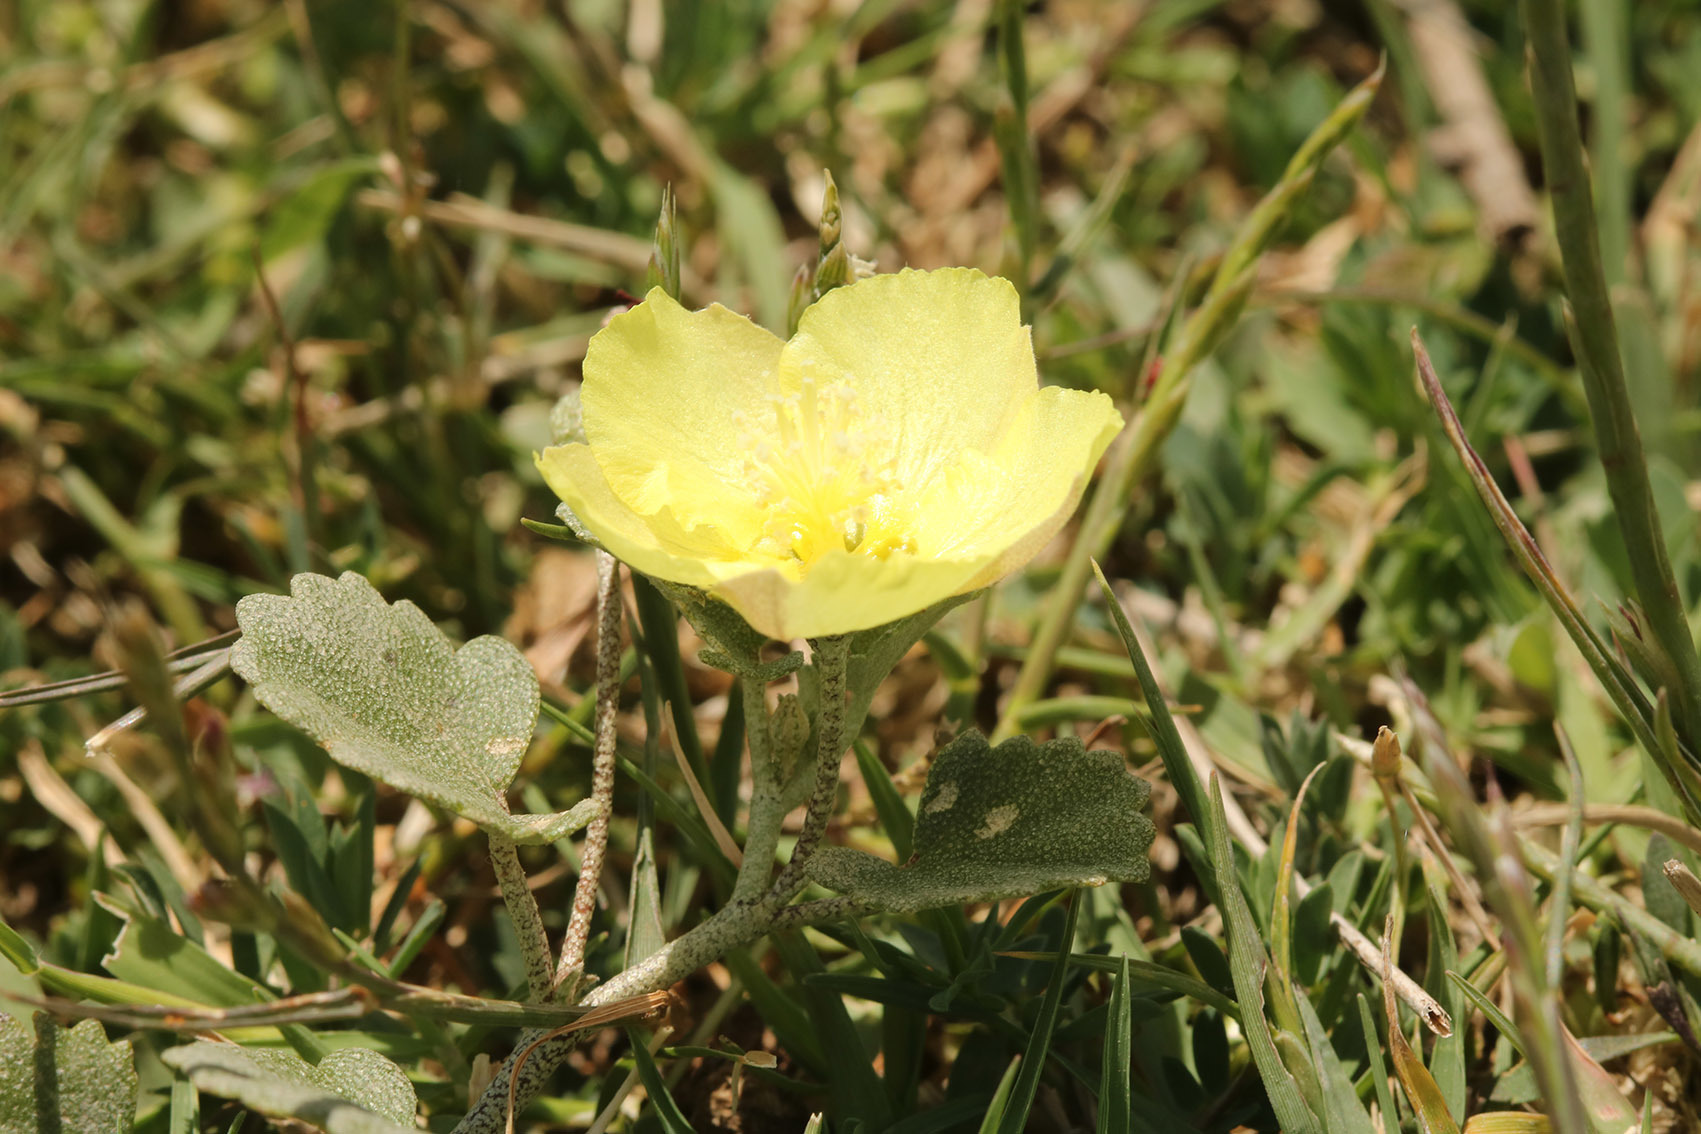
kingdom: Plantae
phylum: Tracheophyta
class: Magnoliopsida
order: Malvales
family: Malvaceae
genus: Malvella
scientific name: Malvella leprosa
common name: Alkali-mallow
